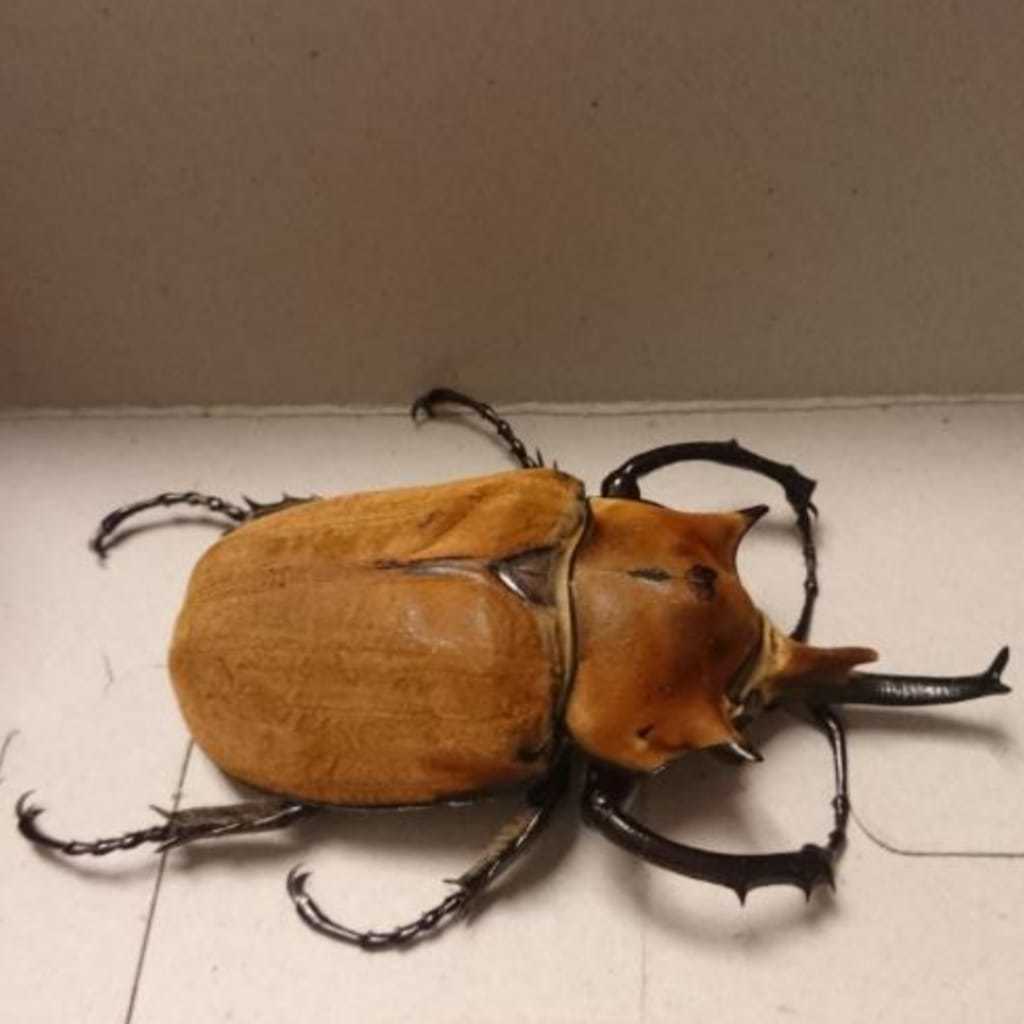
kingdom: Animalia
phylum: Arthropoda
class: Insecta
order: Coleoptera
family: Scarabaeidae
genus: Megasoma
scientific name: Megasoma elephas
